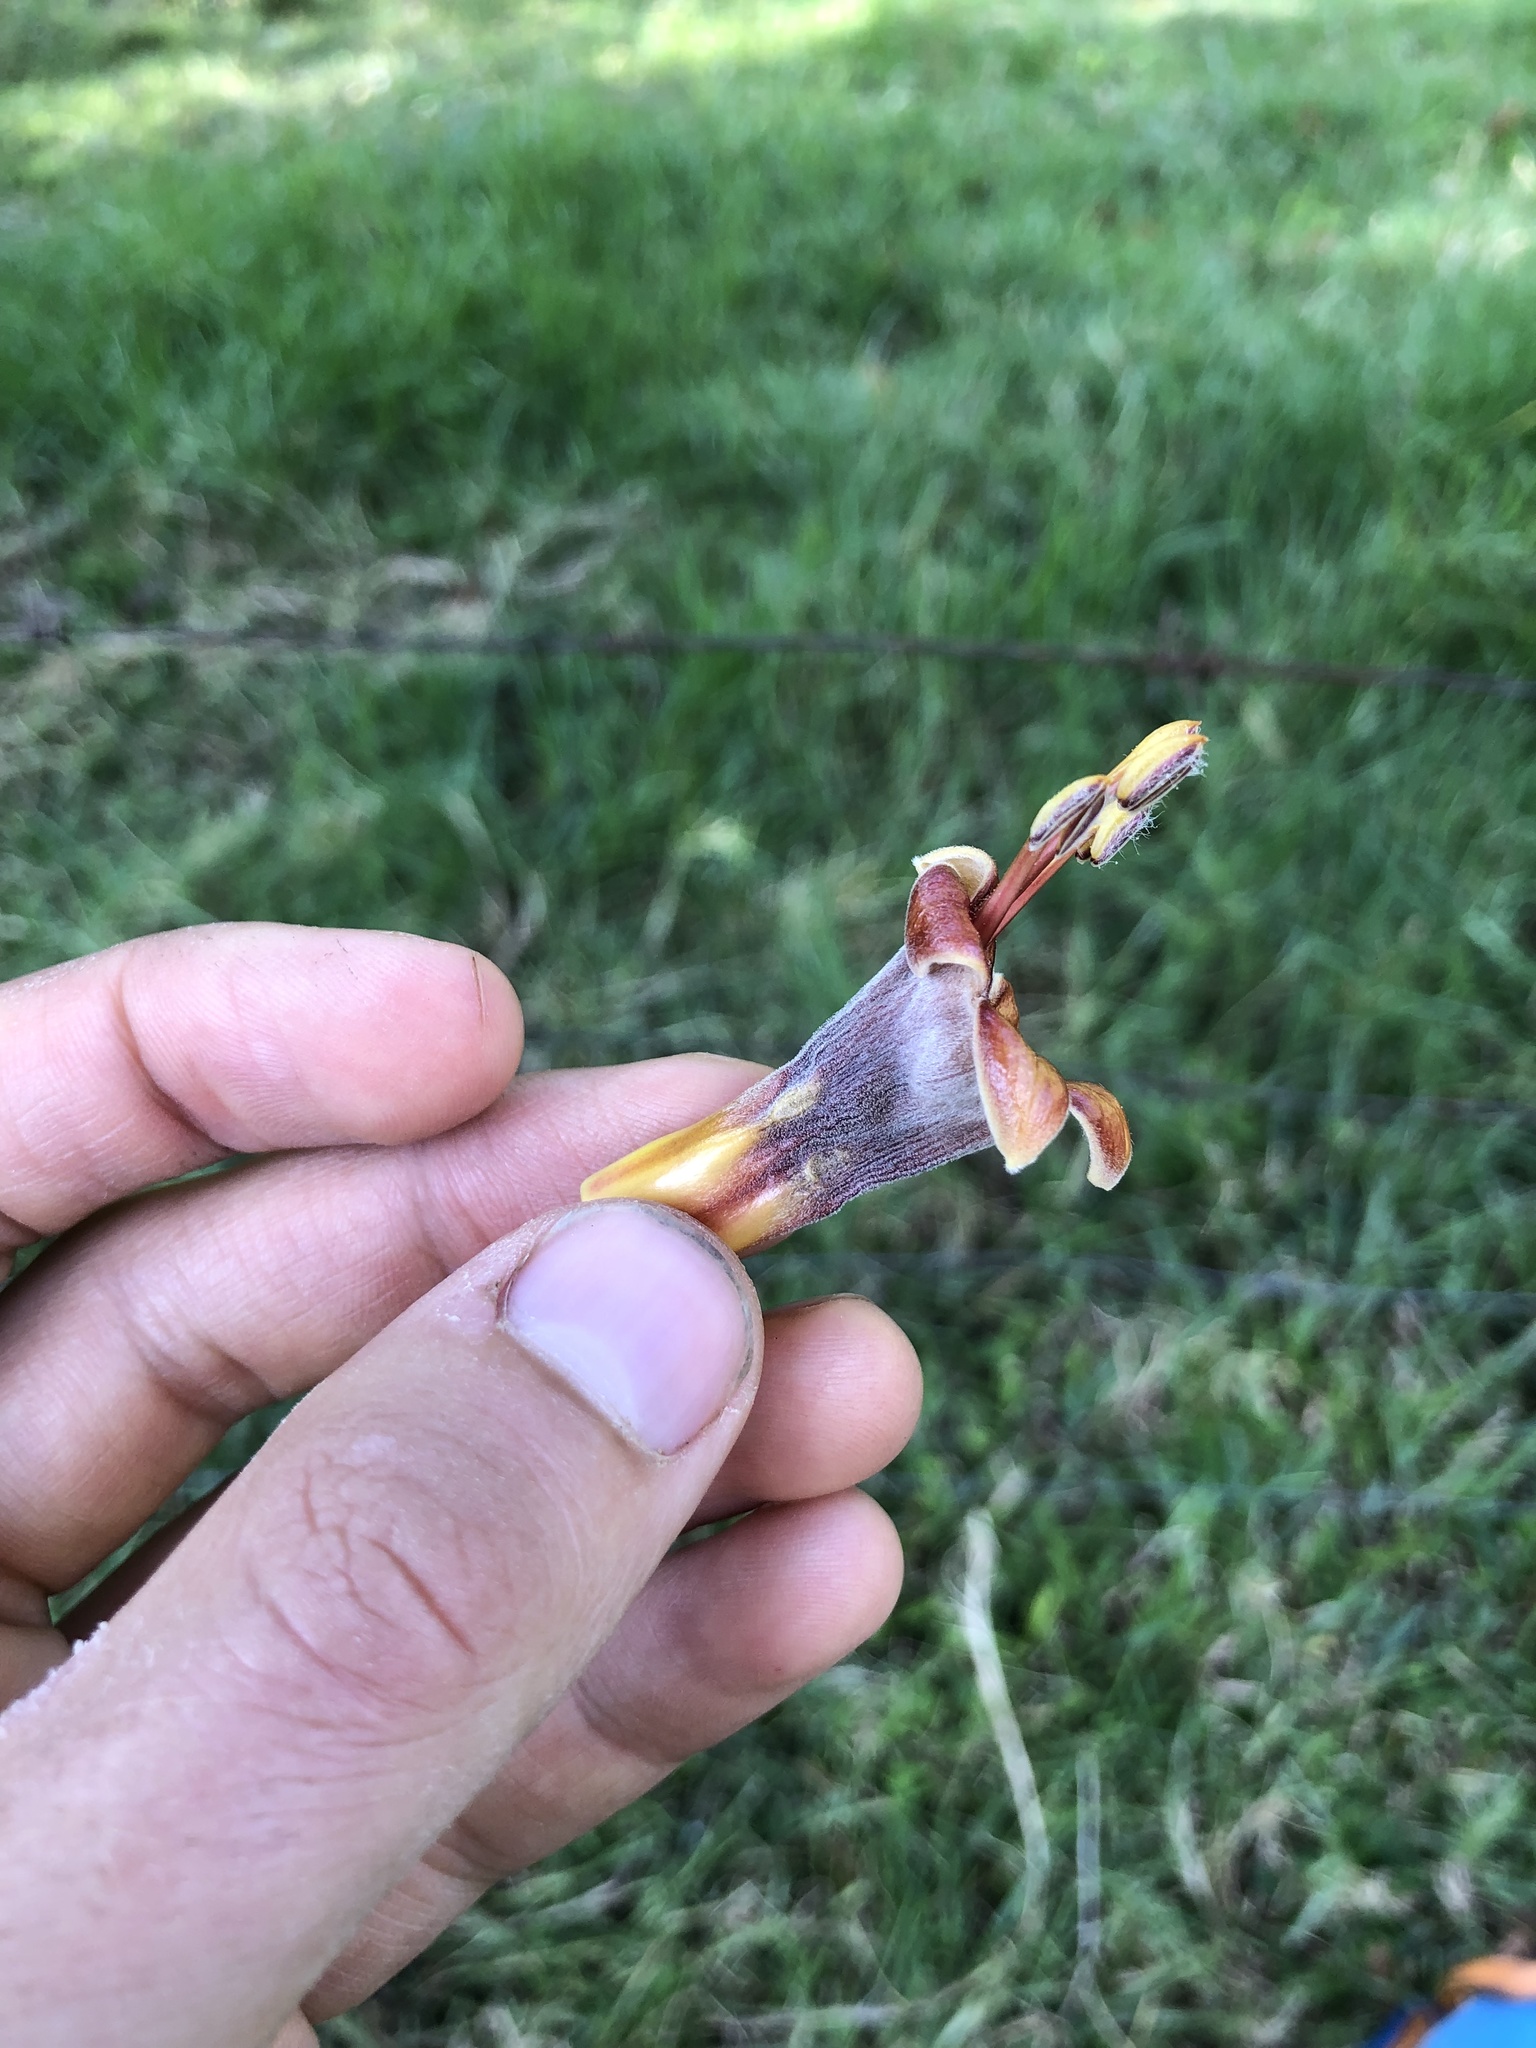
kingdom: Plantae
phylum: Tracheophyta
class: Magnoliopsida
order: Lamiales
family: Acanthaceae
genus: Trichanthera
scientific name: Trichanthera gigantea
